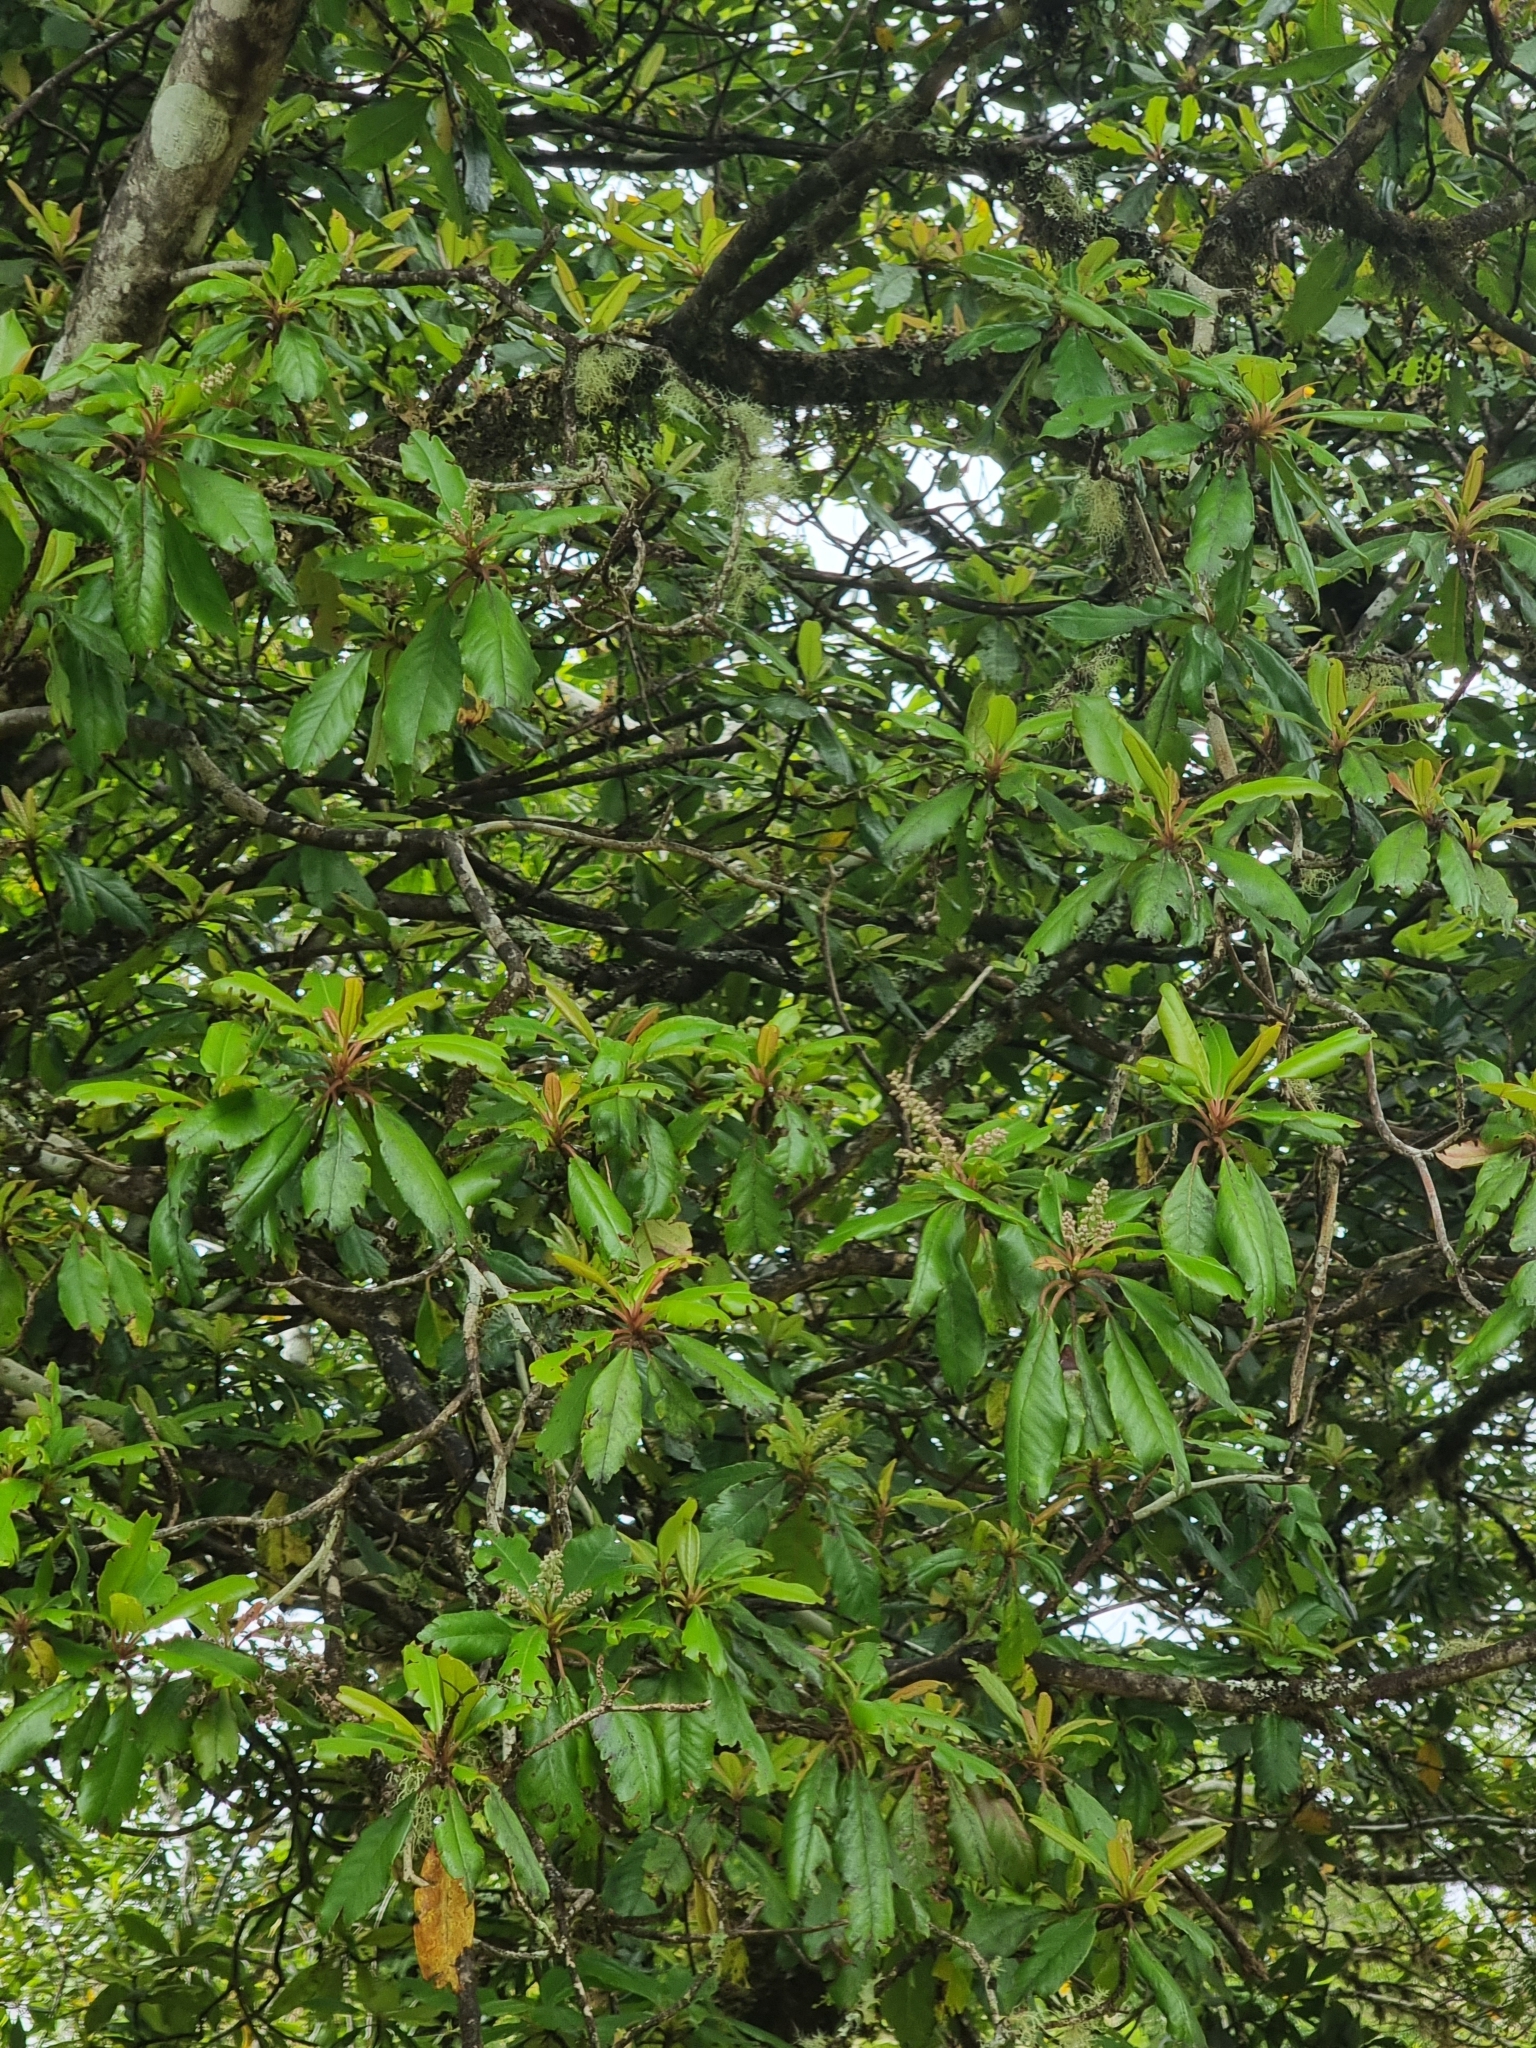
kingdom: Plantae
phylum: Tracheophyta
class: Magnoliopsida
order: Ericales
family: Clethraceae
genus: Clethra
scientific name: Clethra arborea
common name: Lily-of-the-valley-tree
